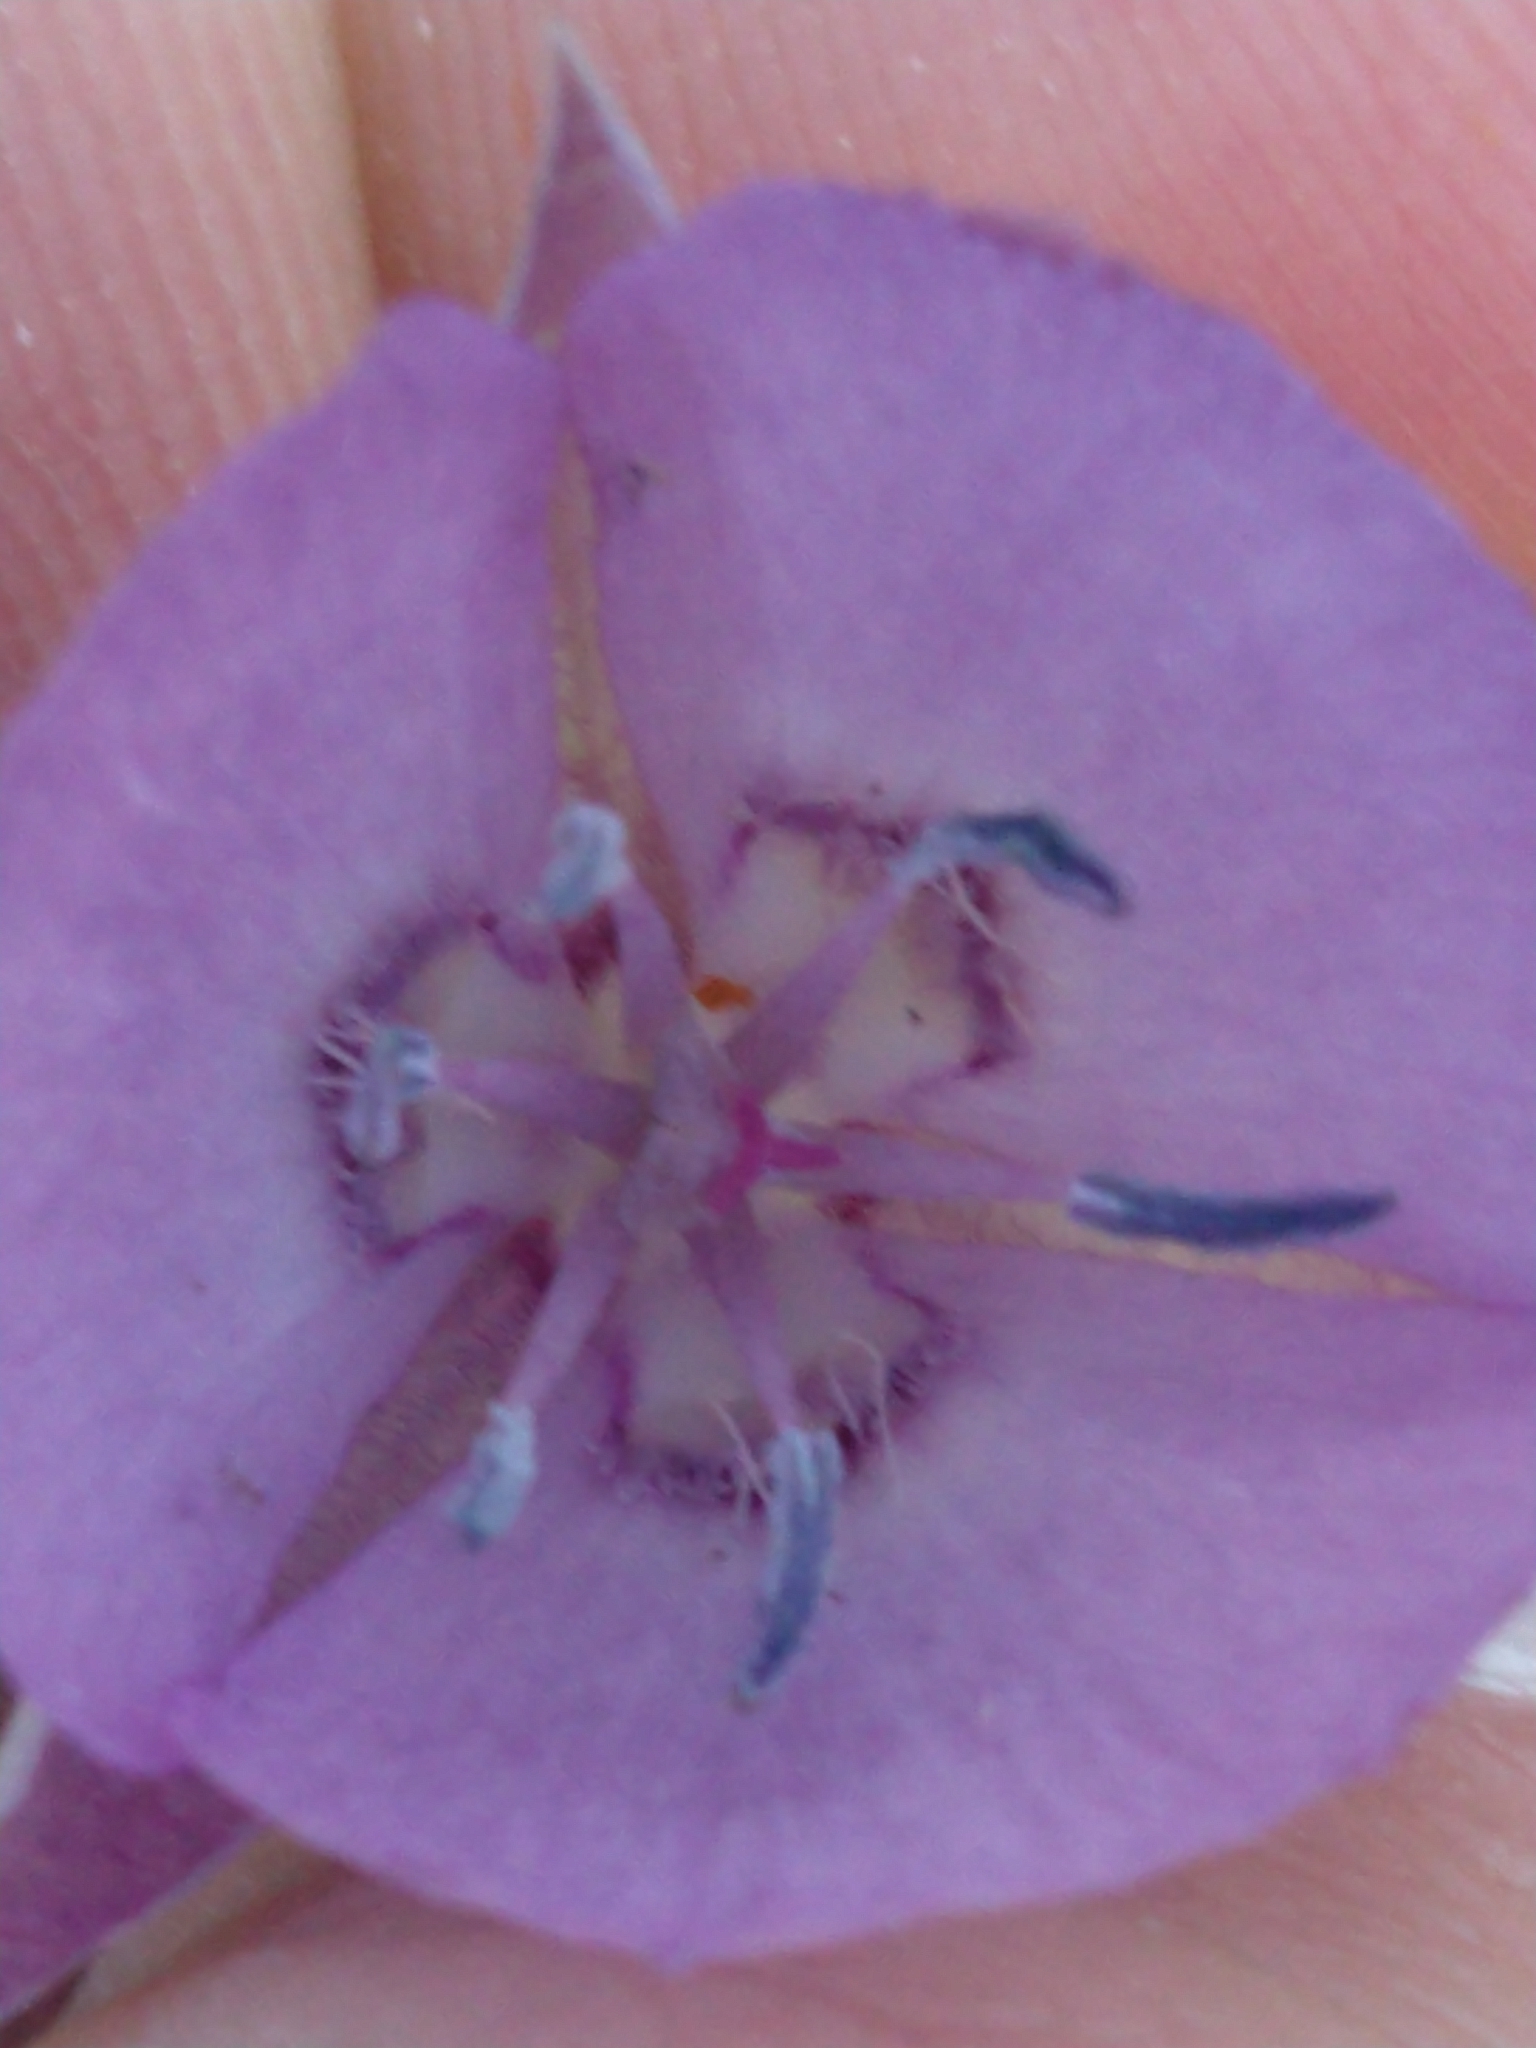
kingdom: Plantae
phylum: Tracheophyta
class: Liliopsida
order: Liliales
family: Liliaceae
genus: Calochortus
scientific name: Calochortus nudus
